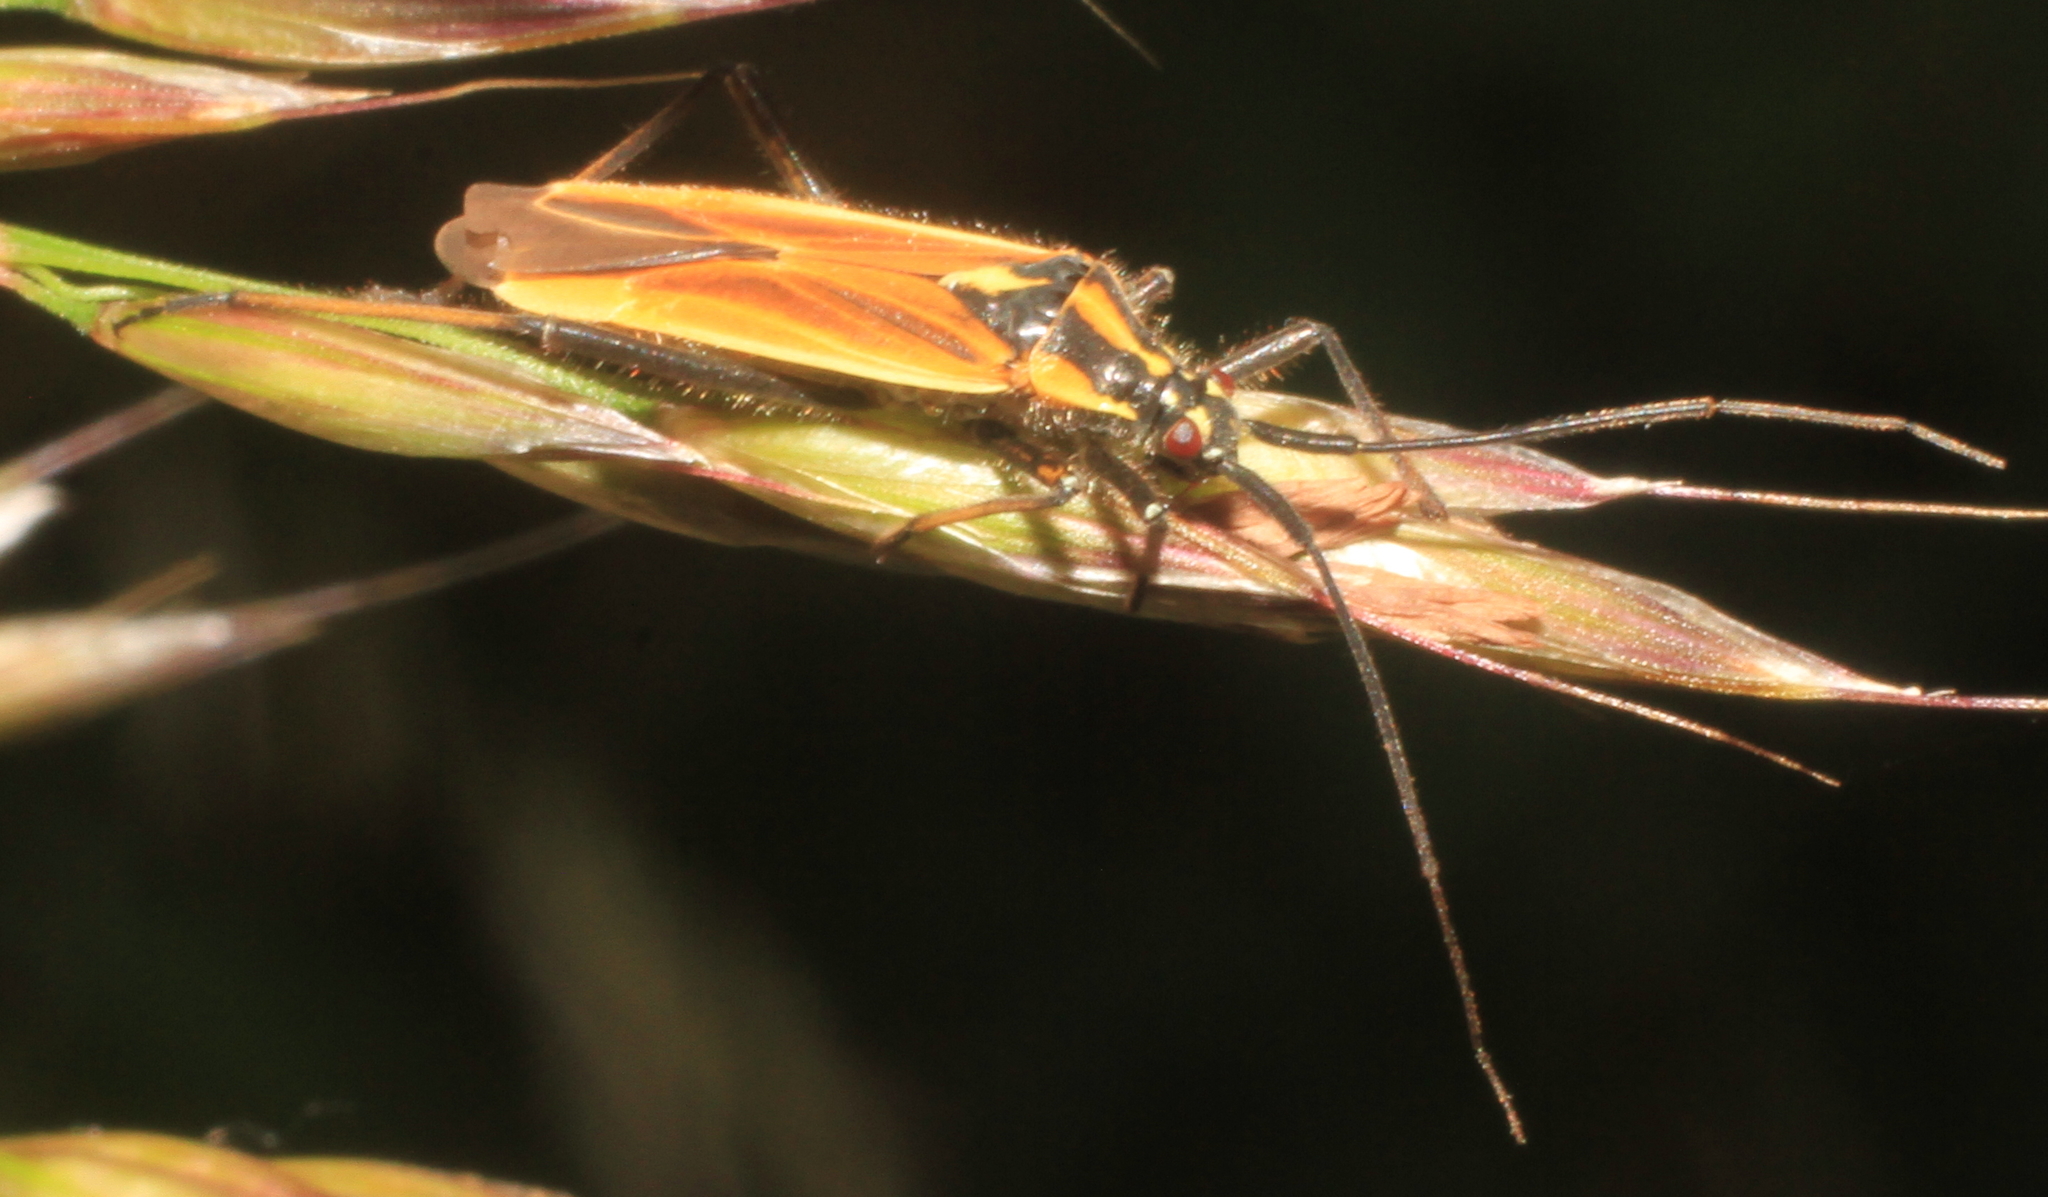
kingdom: Animalia
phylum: Arthropoda
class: Insecta
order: Hemiptera
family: Miridae
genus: Leptopterna
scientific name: Leptopterna dolabrata
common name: Meadow plant bug
